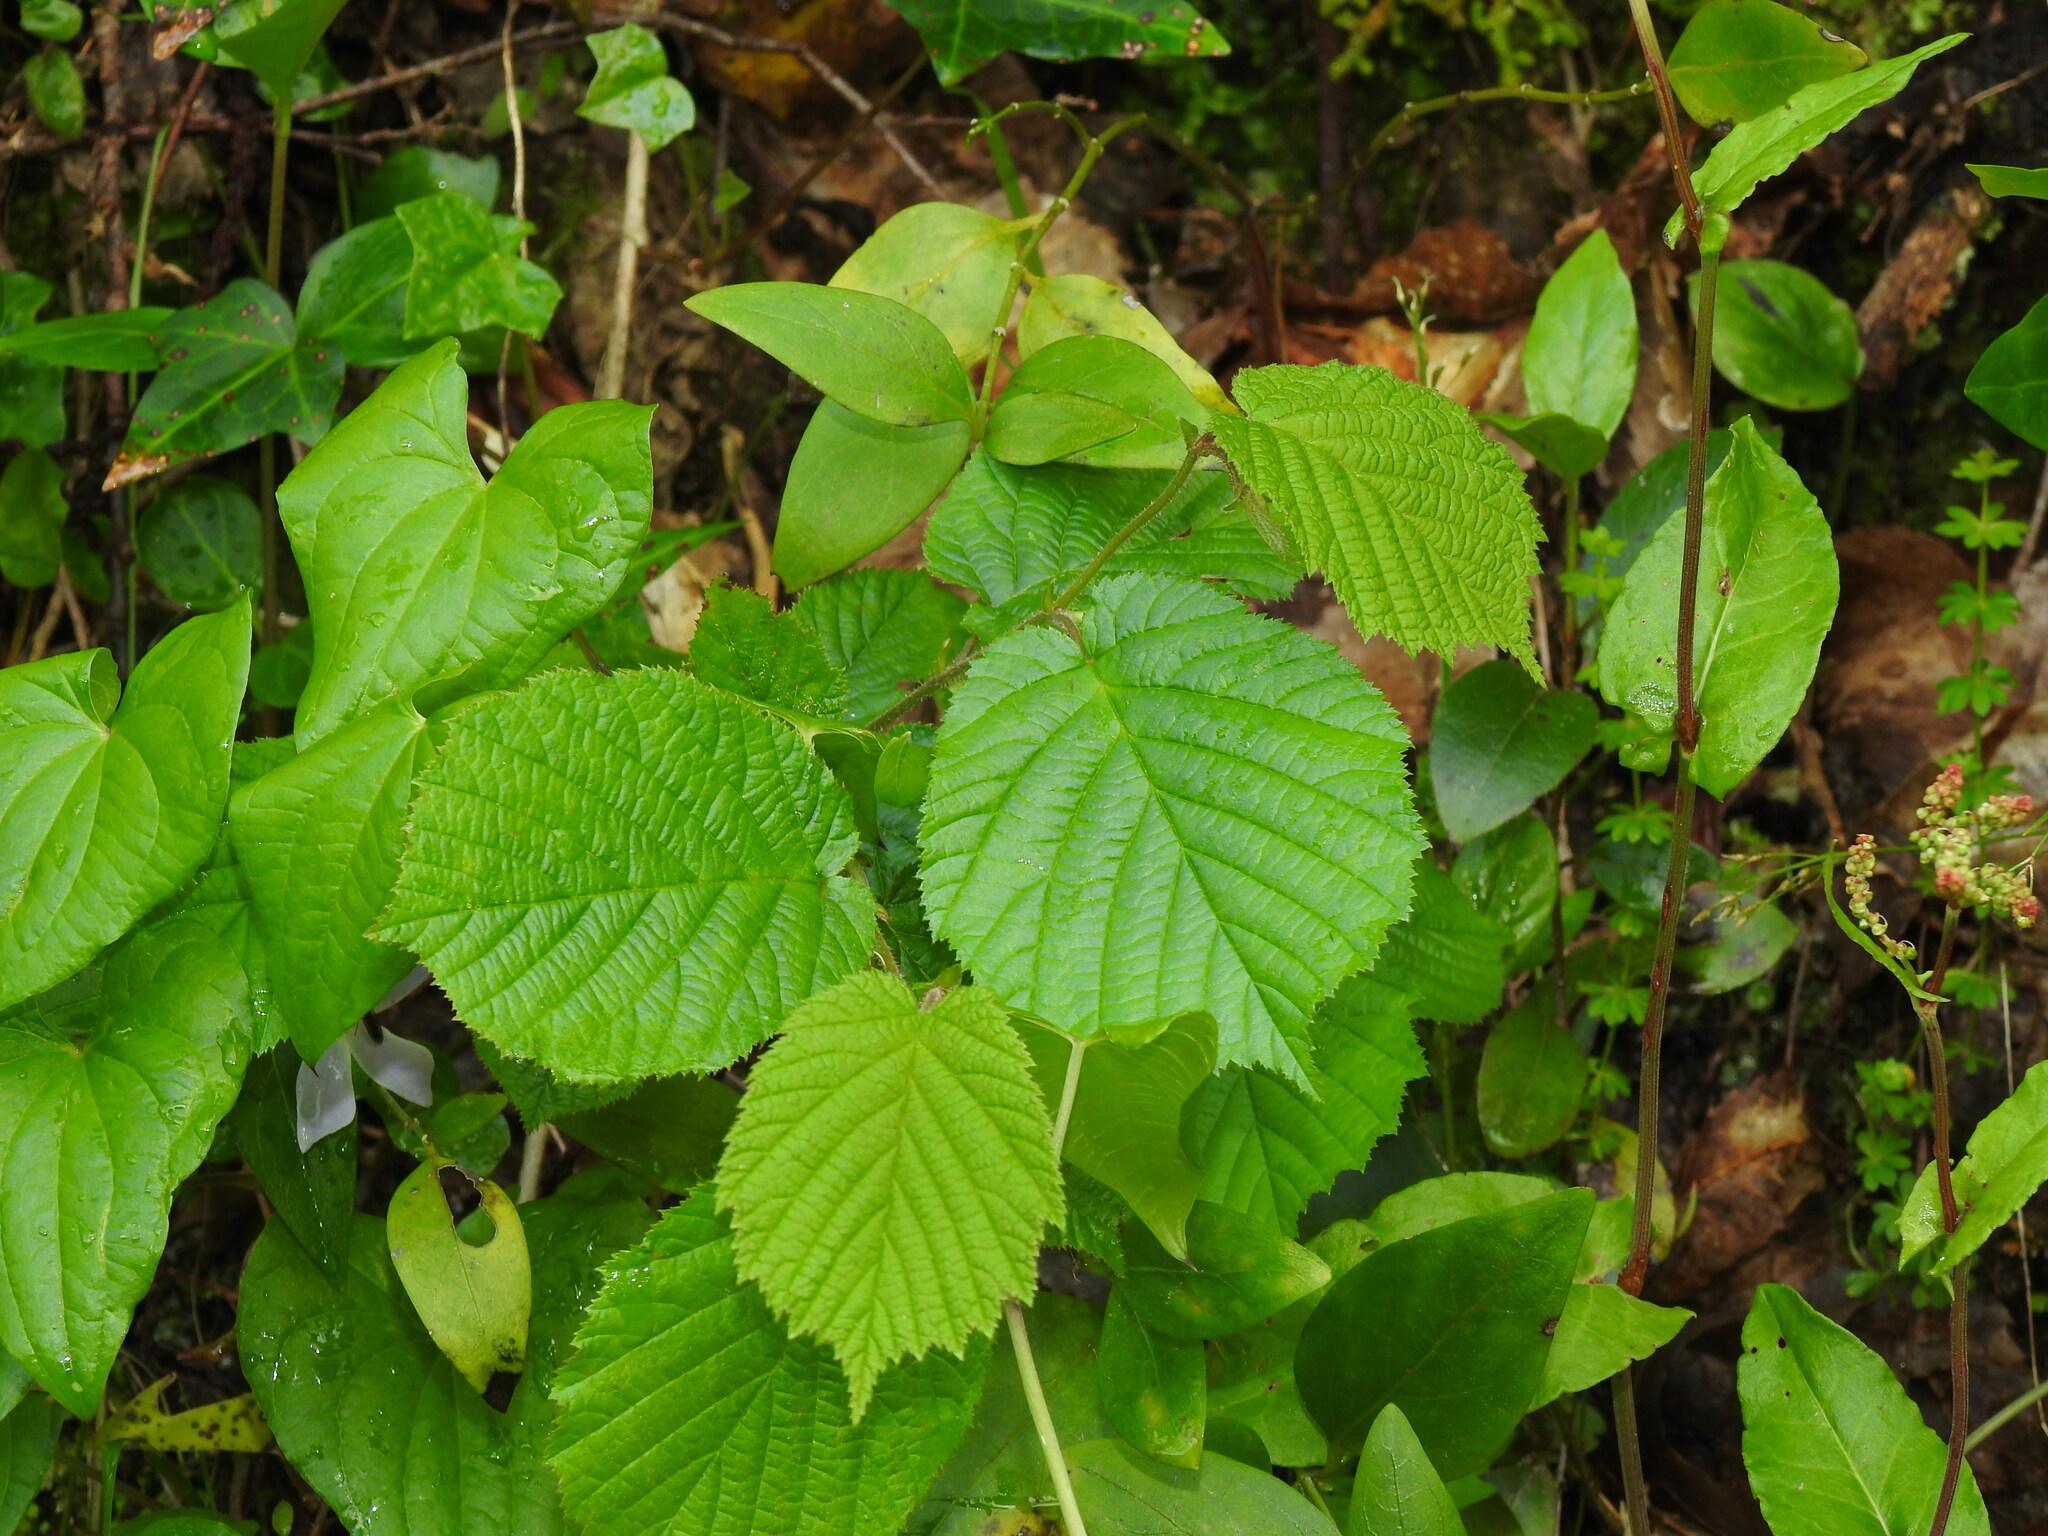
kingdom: Plantae
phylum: Tracheophyta
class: Magnoliopsida
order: Fagales
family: Betulaceae
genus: Corylus
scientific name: Corylus avellana
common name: European hazel
